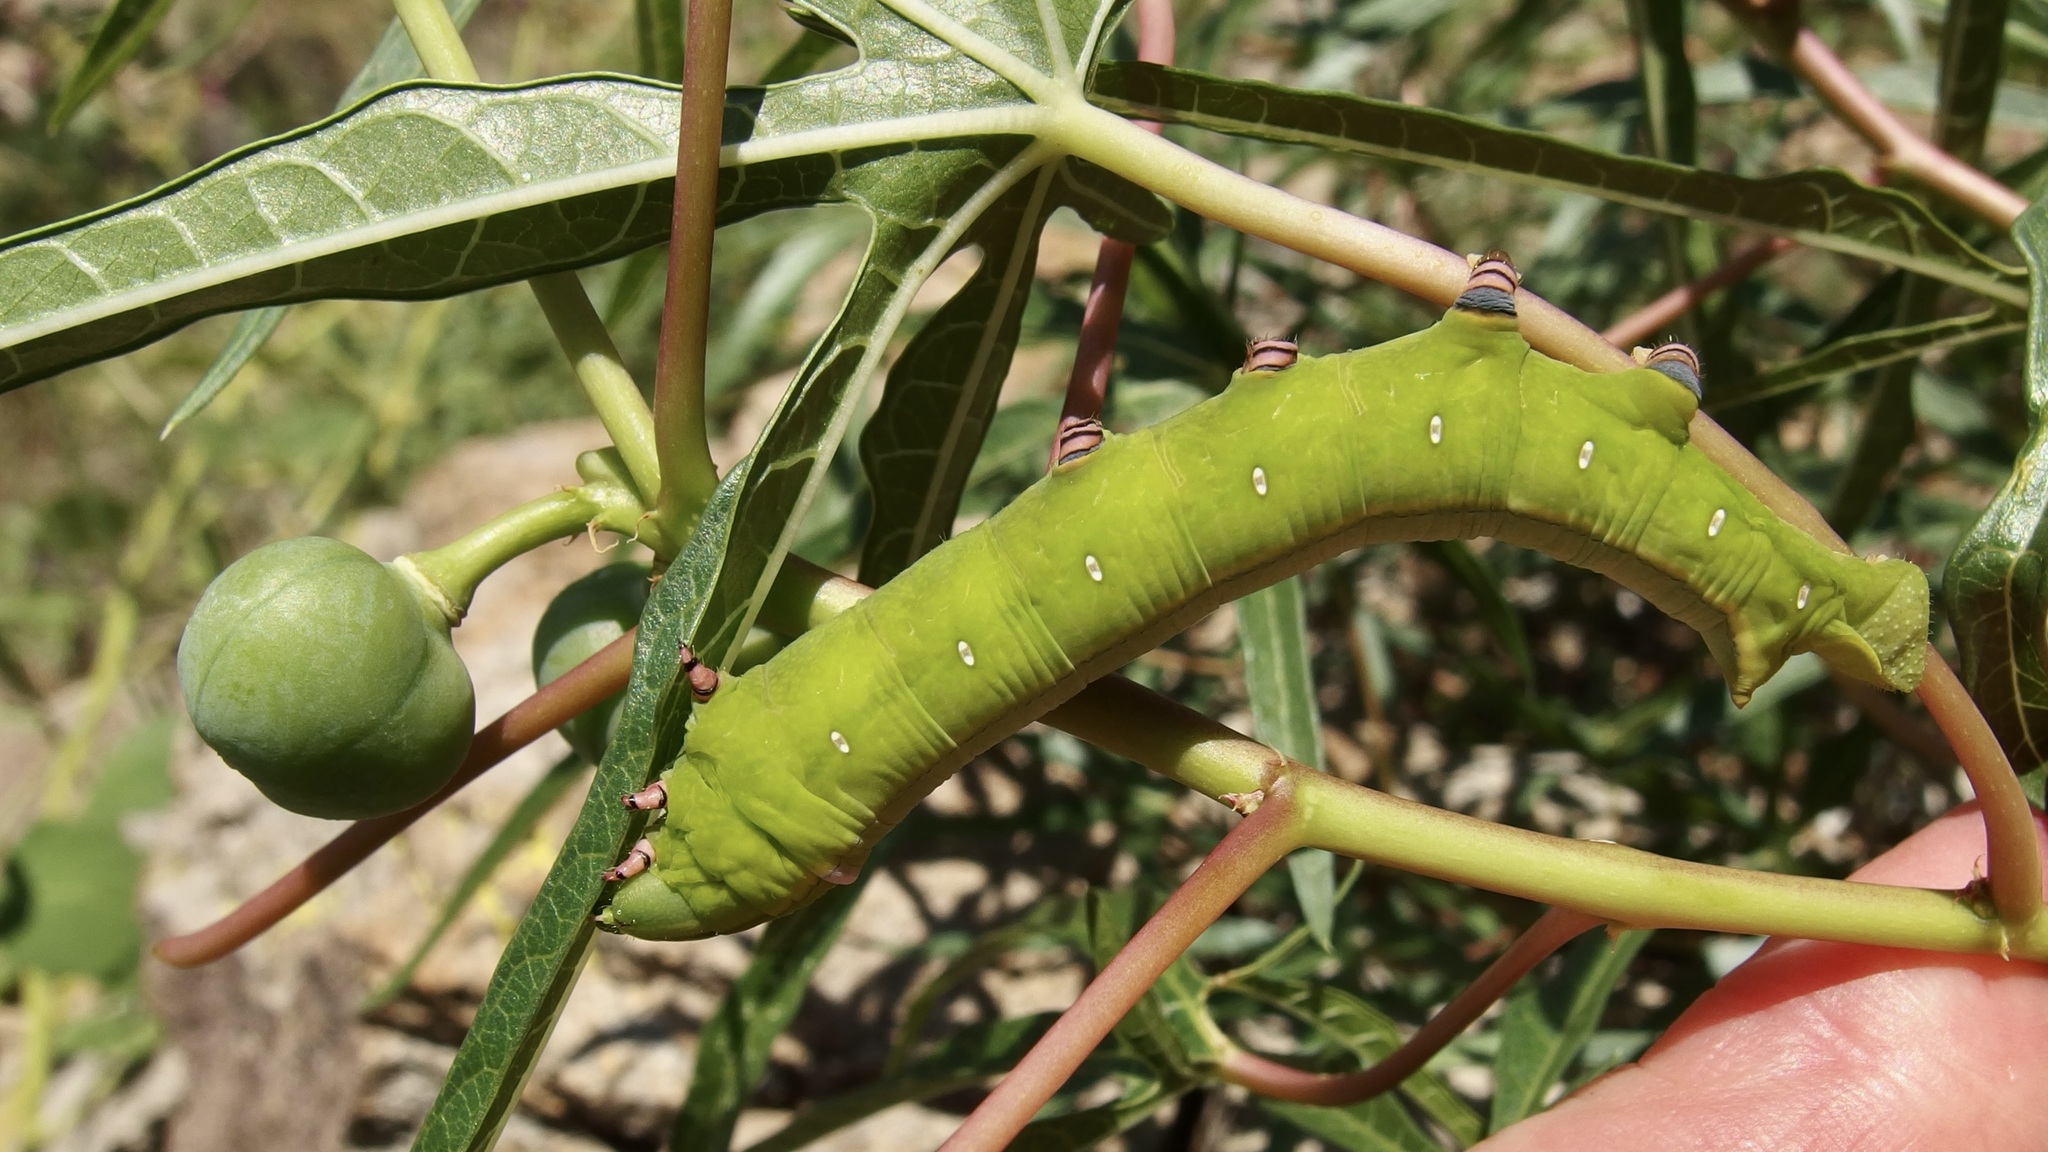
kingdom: Animalia
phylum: Arthropoda
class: Insecta
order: Lepidoptera
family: Sphingidae
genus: Erinnyis
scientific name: Erinnyis ello
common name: Ello sphinx
